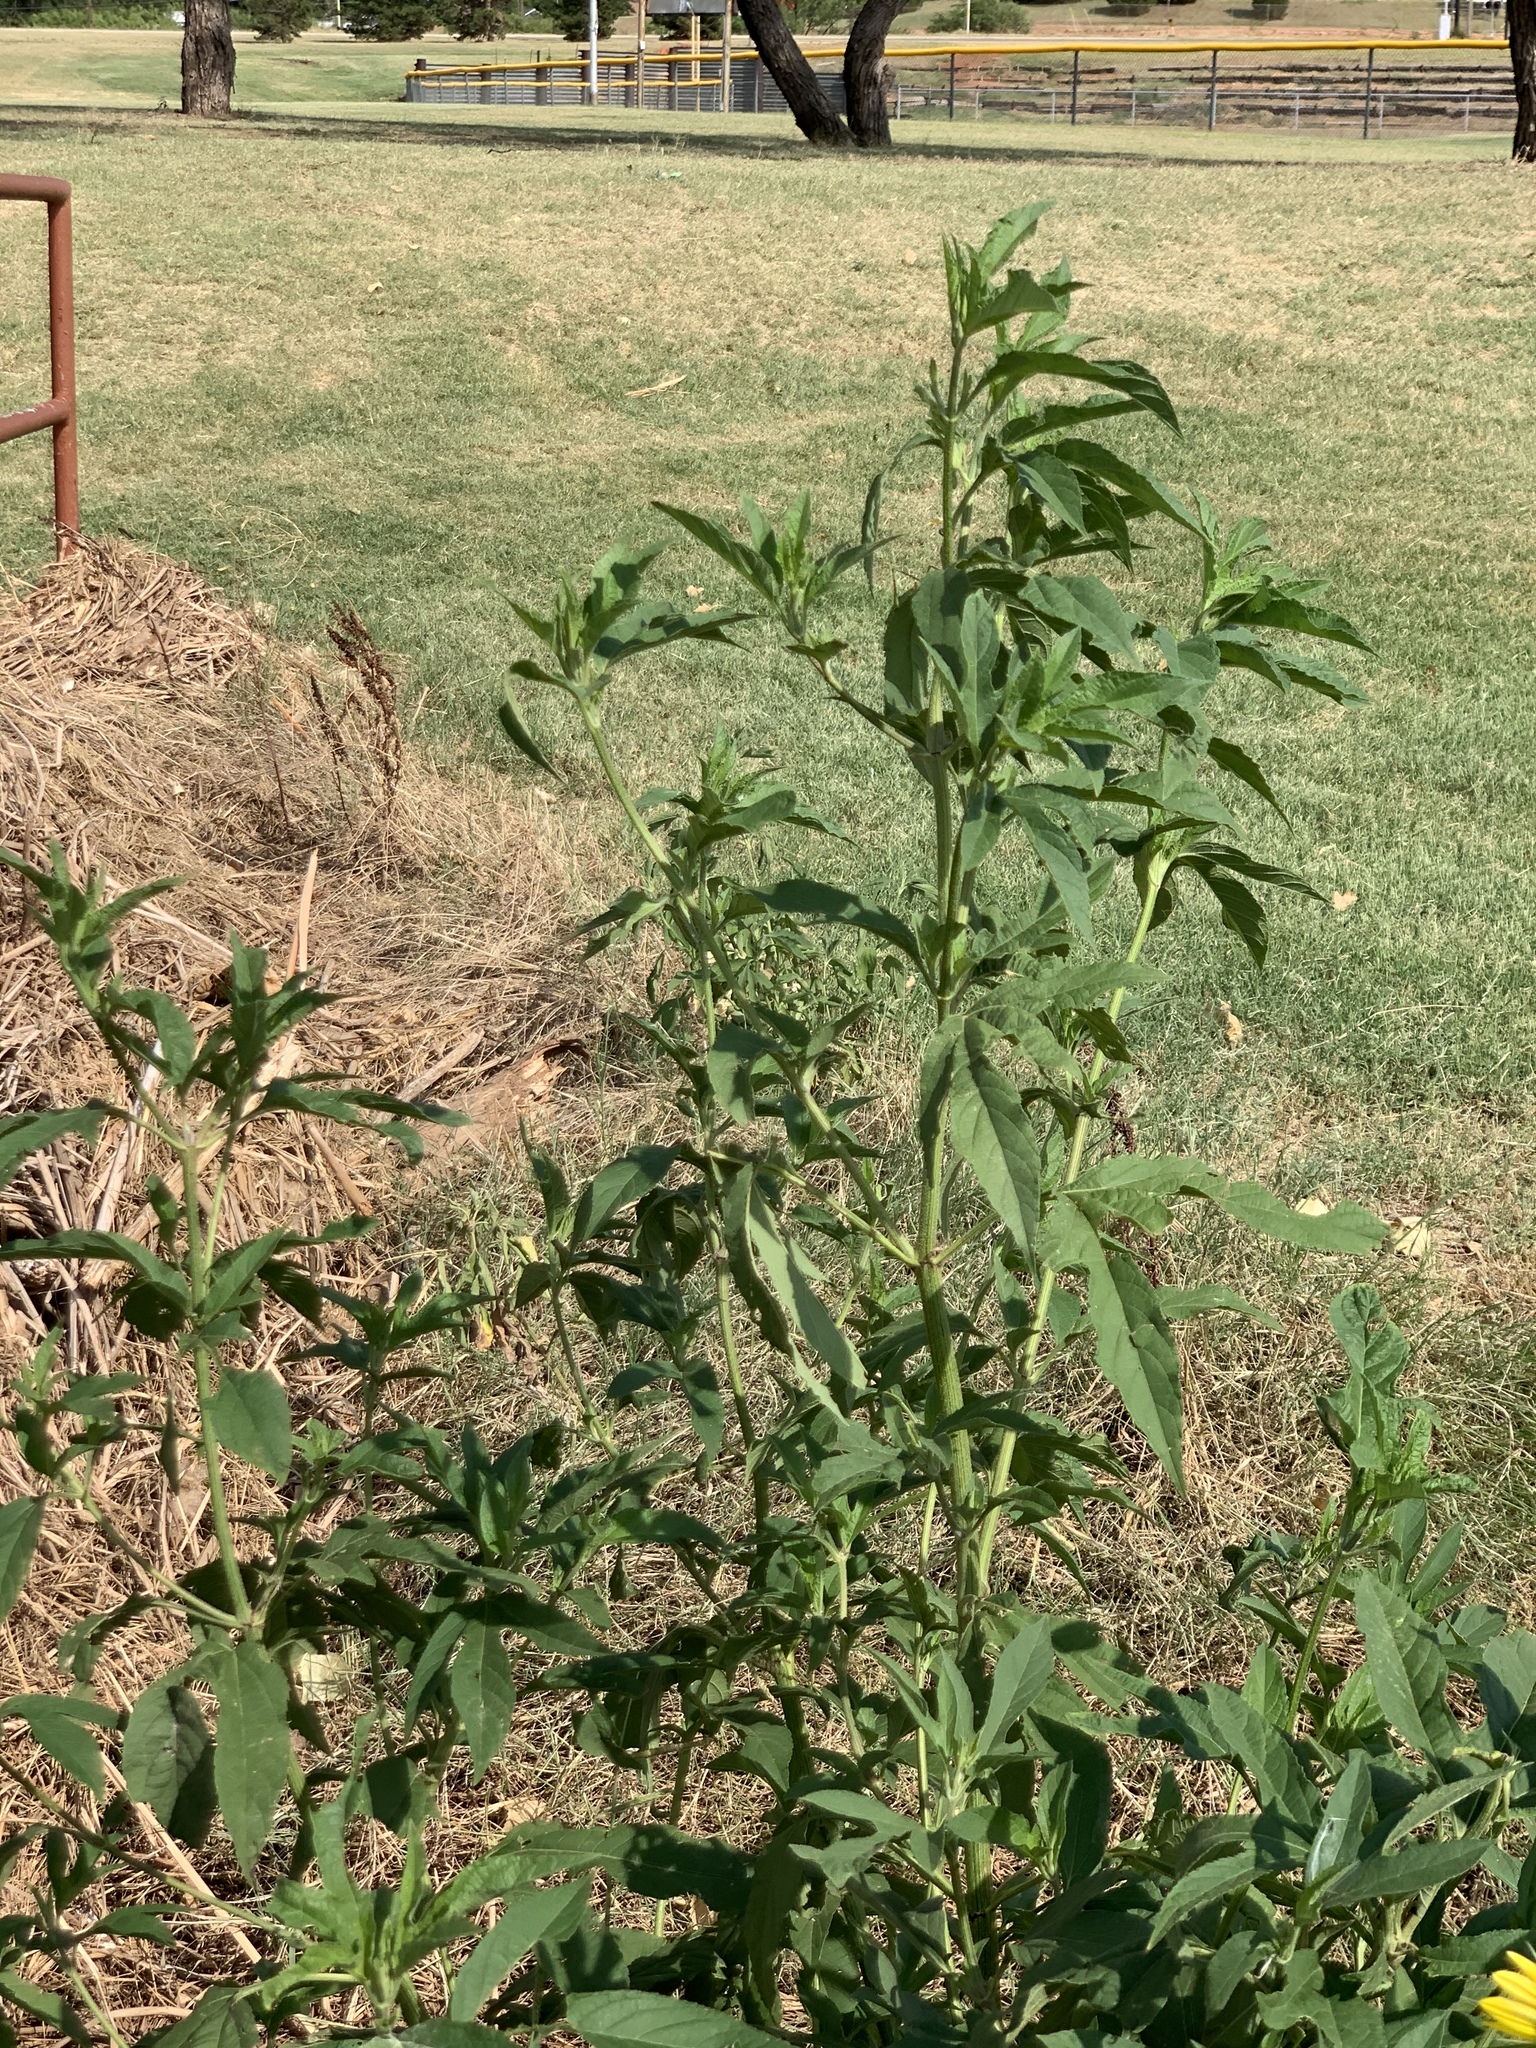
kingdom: Plantae
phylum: Tracheophyta
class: Magnoliopsida
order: Asterales
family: Asteraceae
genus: Ambrosia
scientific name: Ambrosia trifida
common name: Giant ragweed
